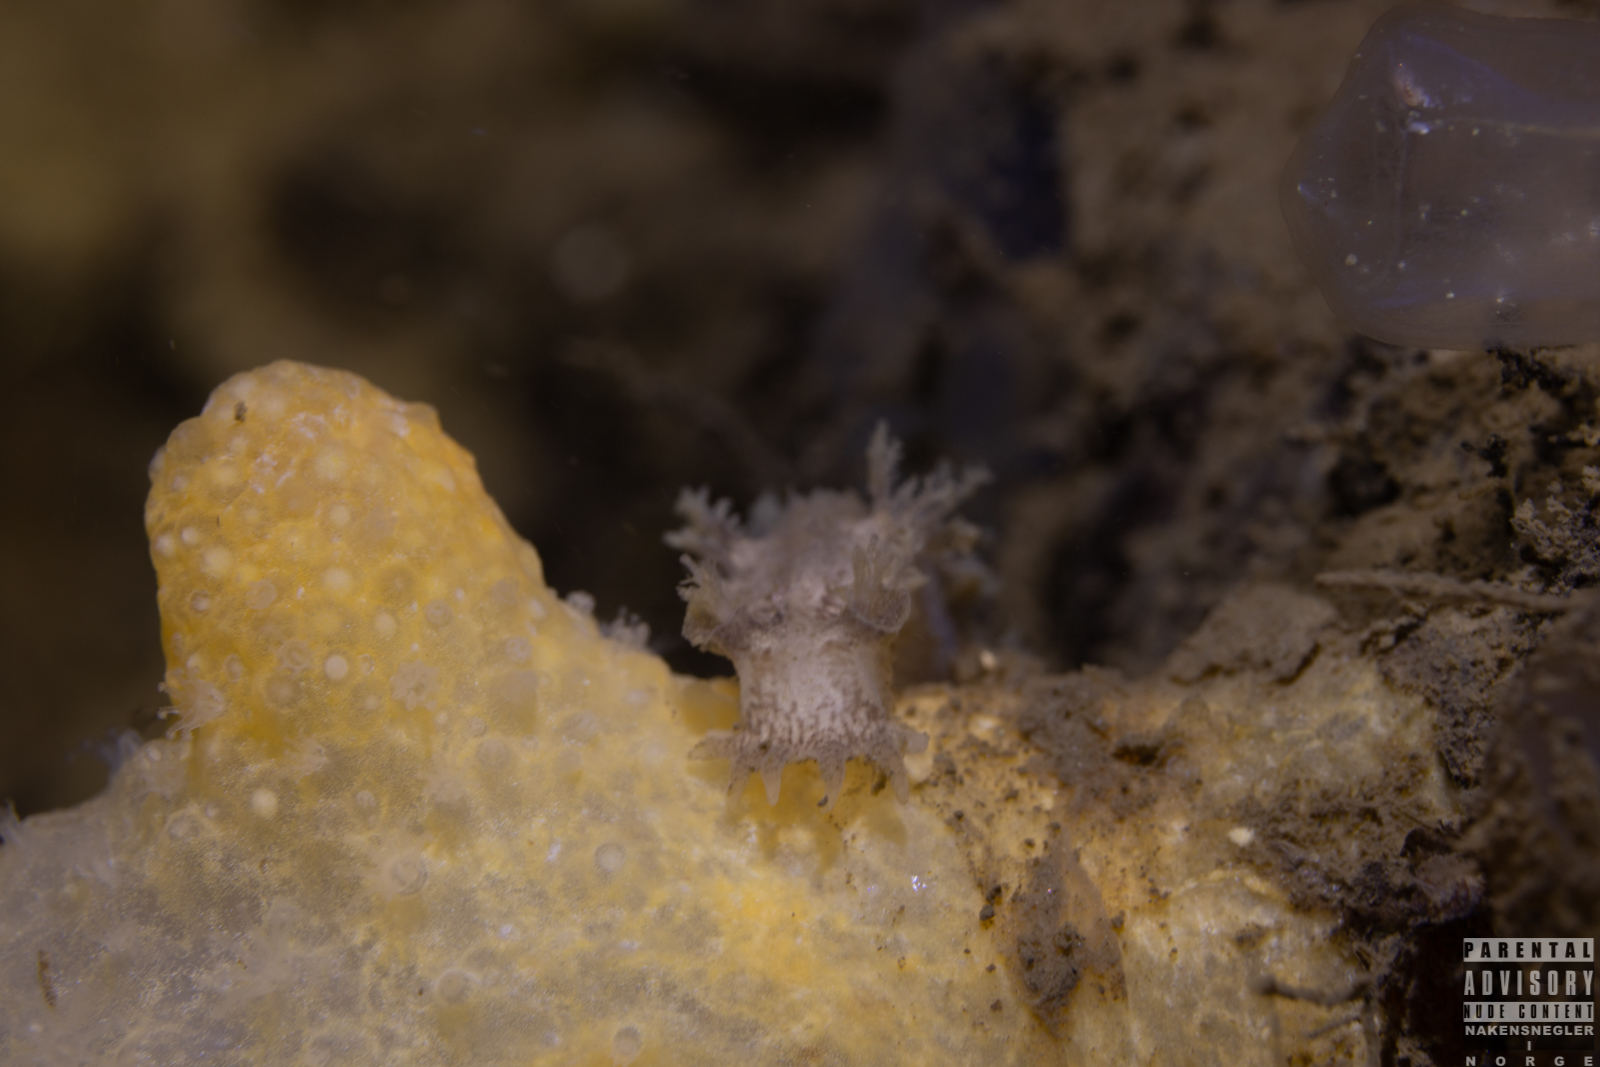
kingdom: Animalia
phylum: Mollusca
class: Gastropoda
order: Nudibranchia
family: Tritoniidae
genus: Duvaucelia
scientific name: Duvaucelia plebeia
